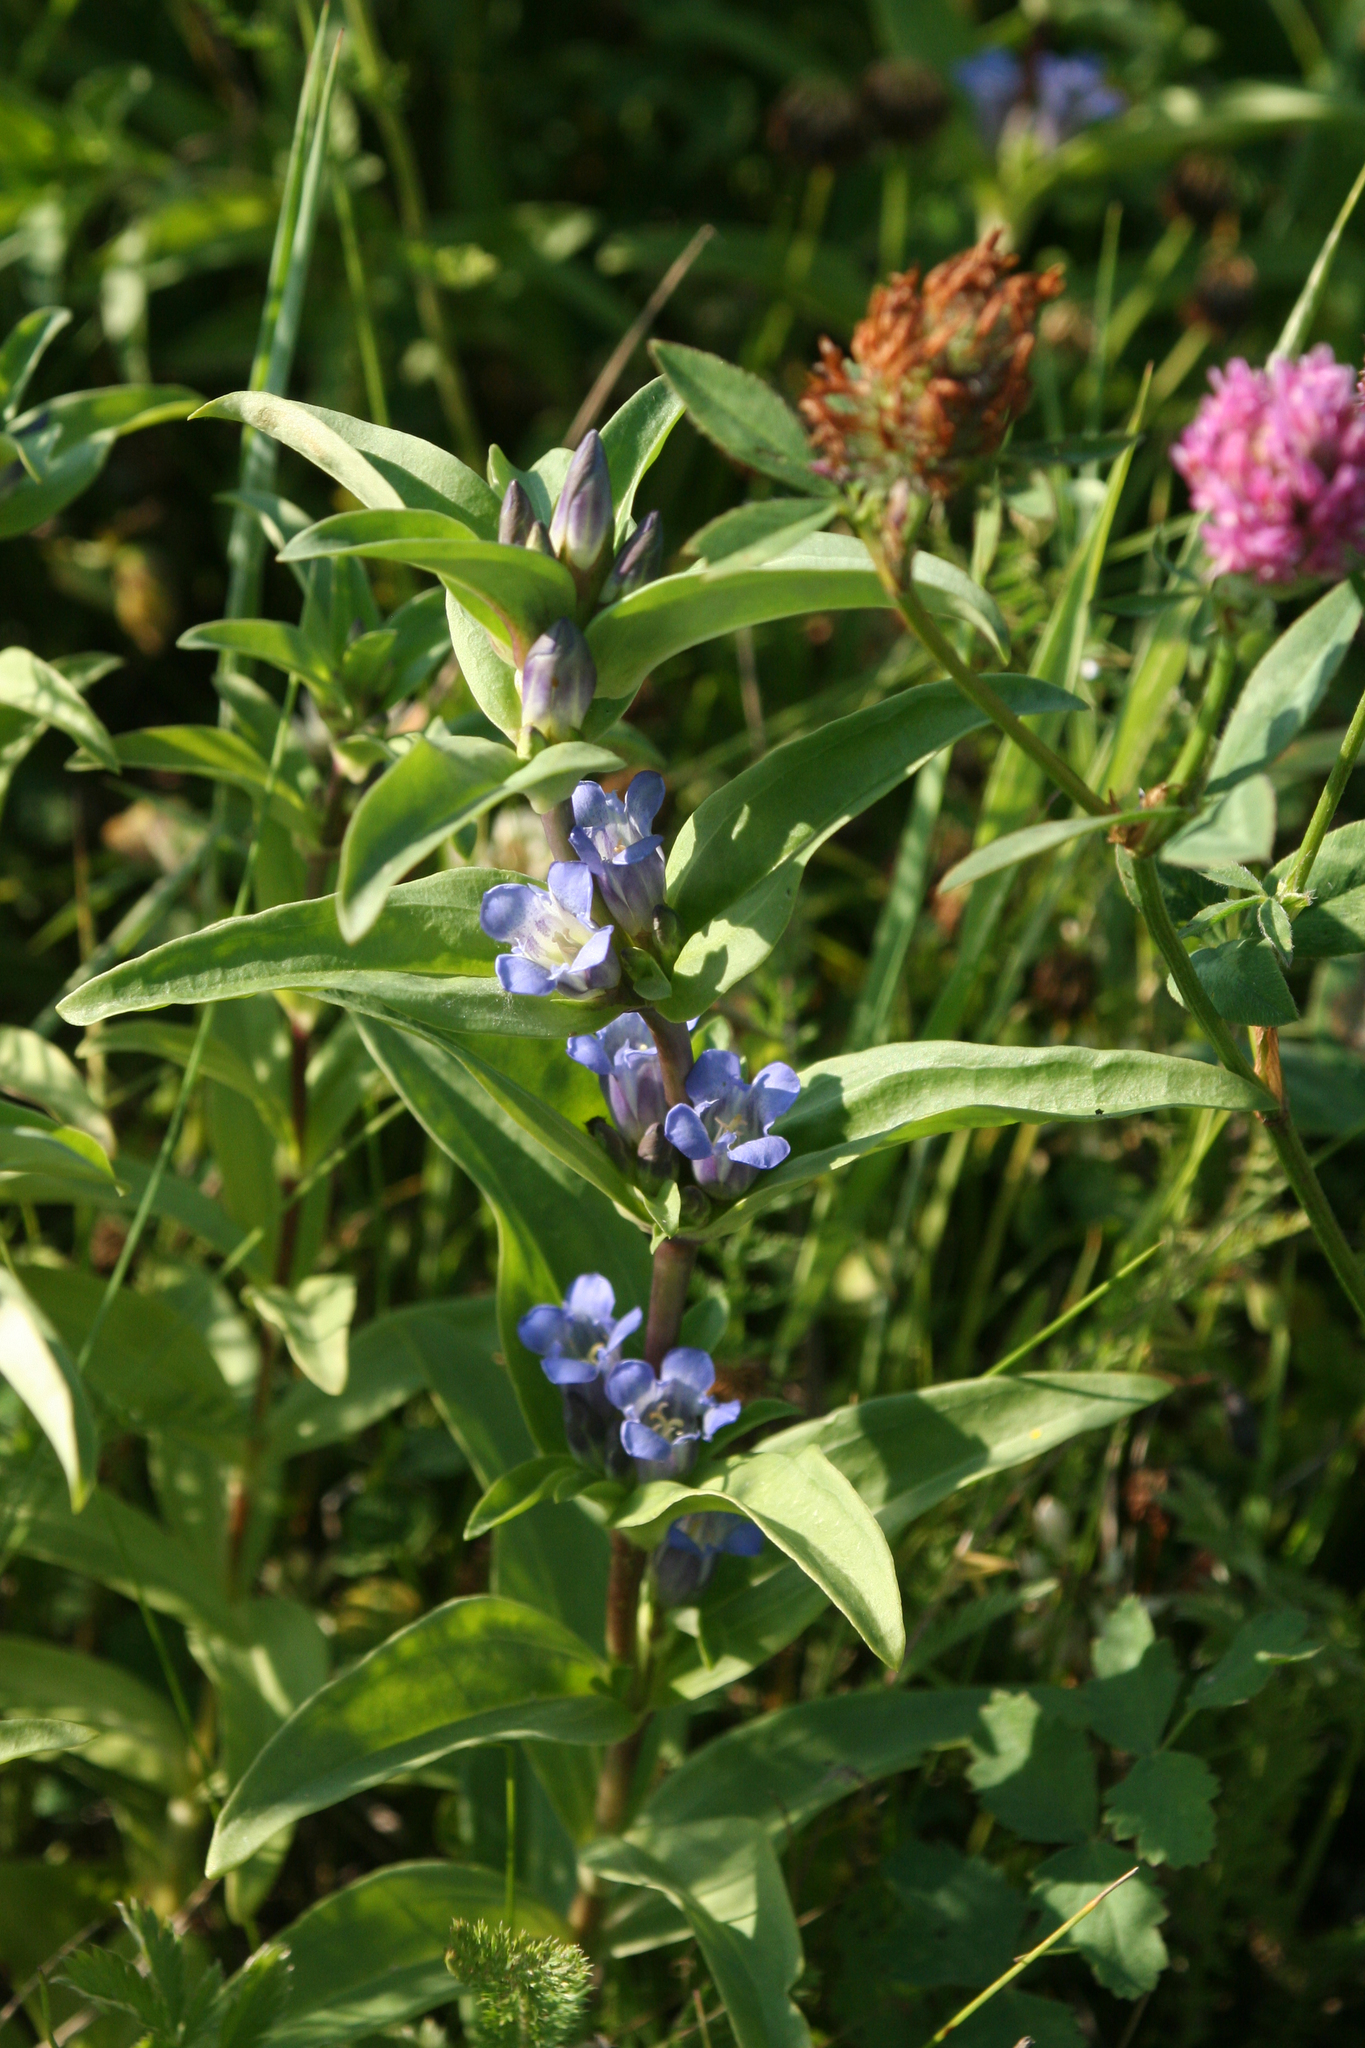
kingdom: Plantae
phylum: Tracheophyta
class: Magnoliopsida
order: Gentianales
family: Gentianaceae
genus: Gentiana
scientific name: Gentiana cruciata
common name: Cross gentian
